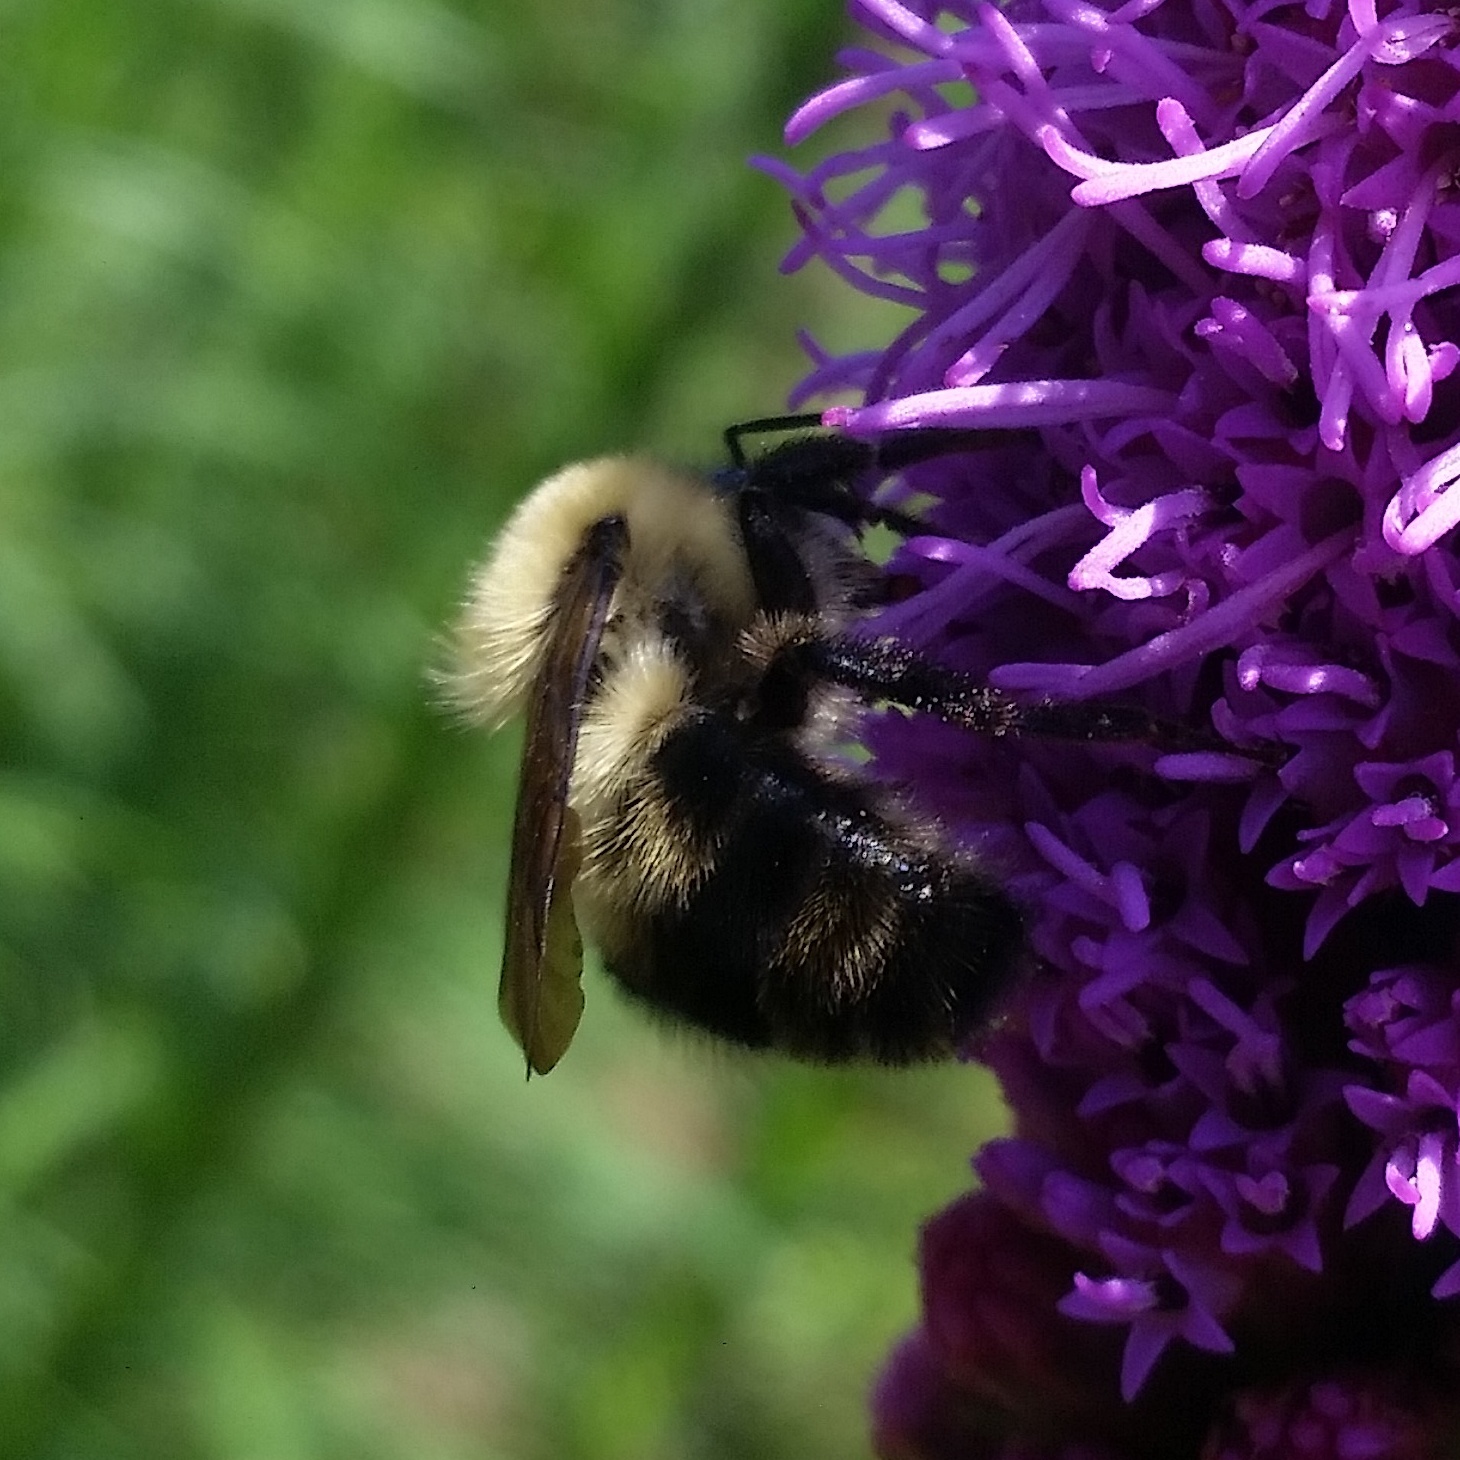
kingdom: Animalia
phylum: Arthropoda
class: Insecta
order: Hymenoptera
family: Apidae
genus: Bombus
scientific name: Bombus bimaculatus
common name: Two-spotted bumble bee
